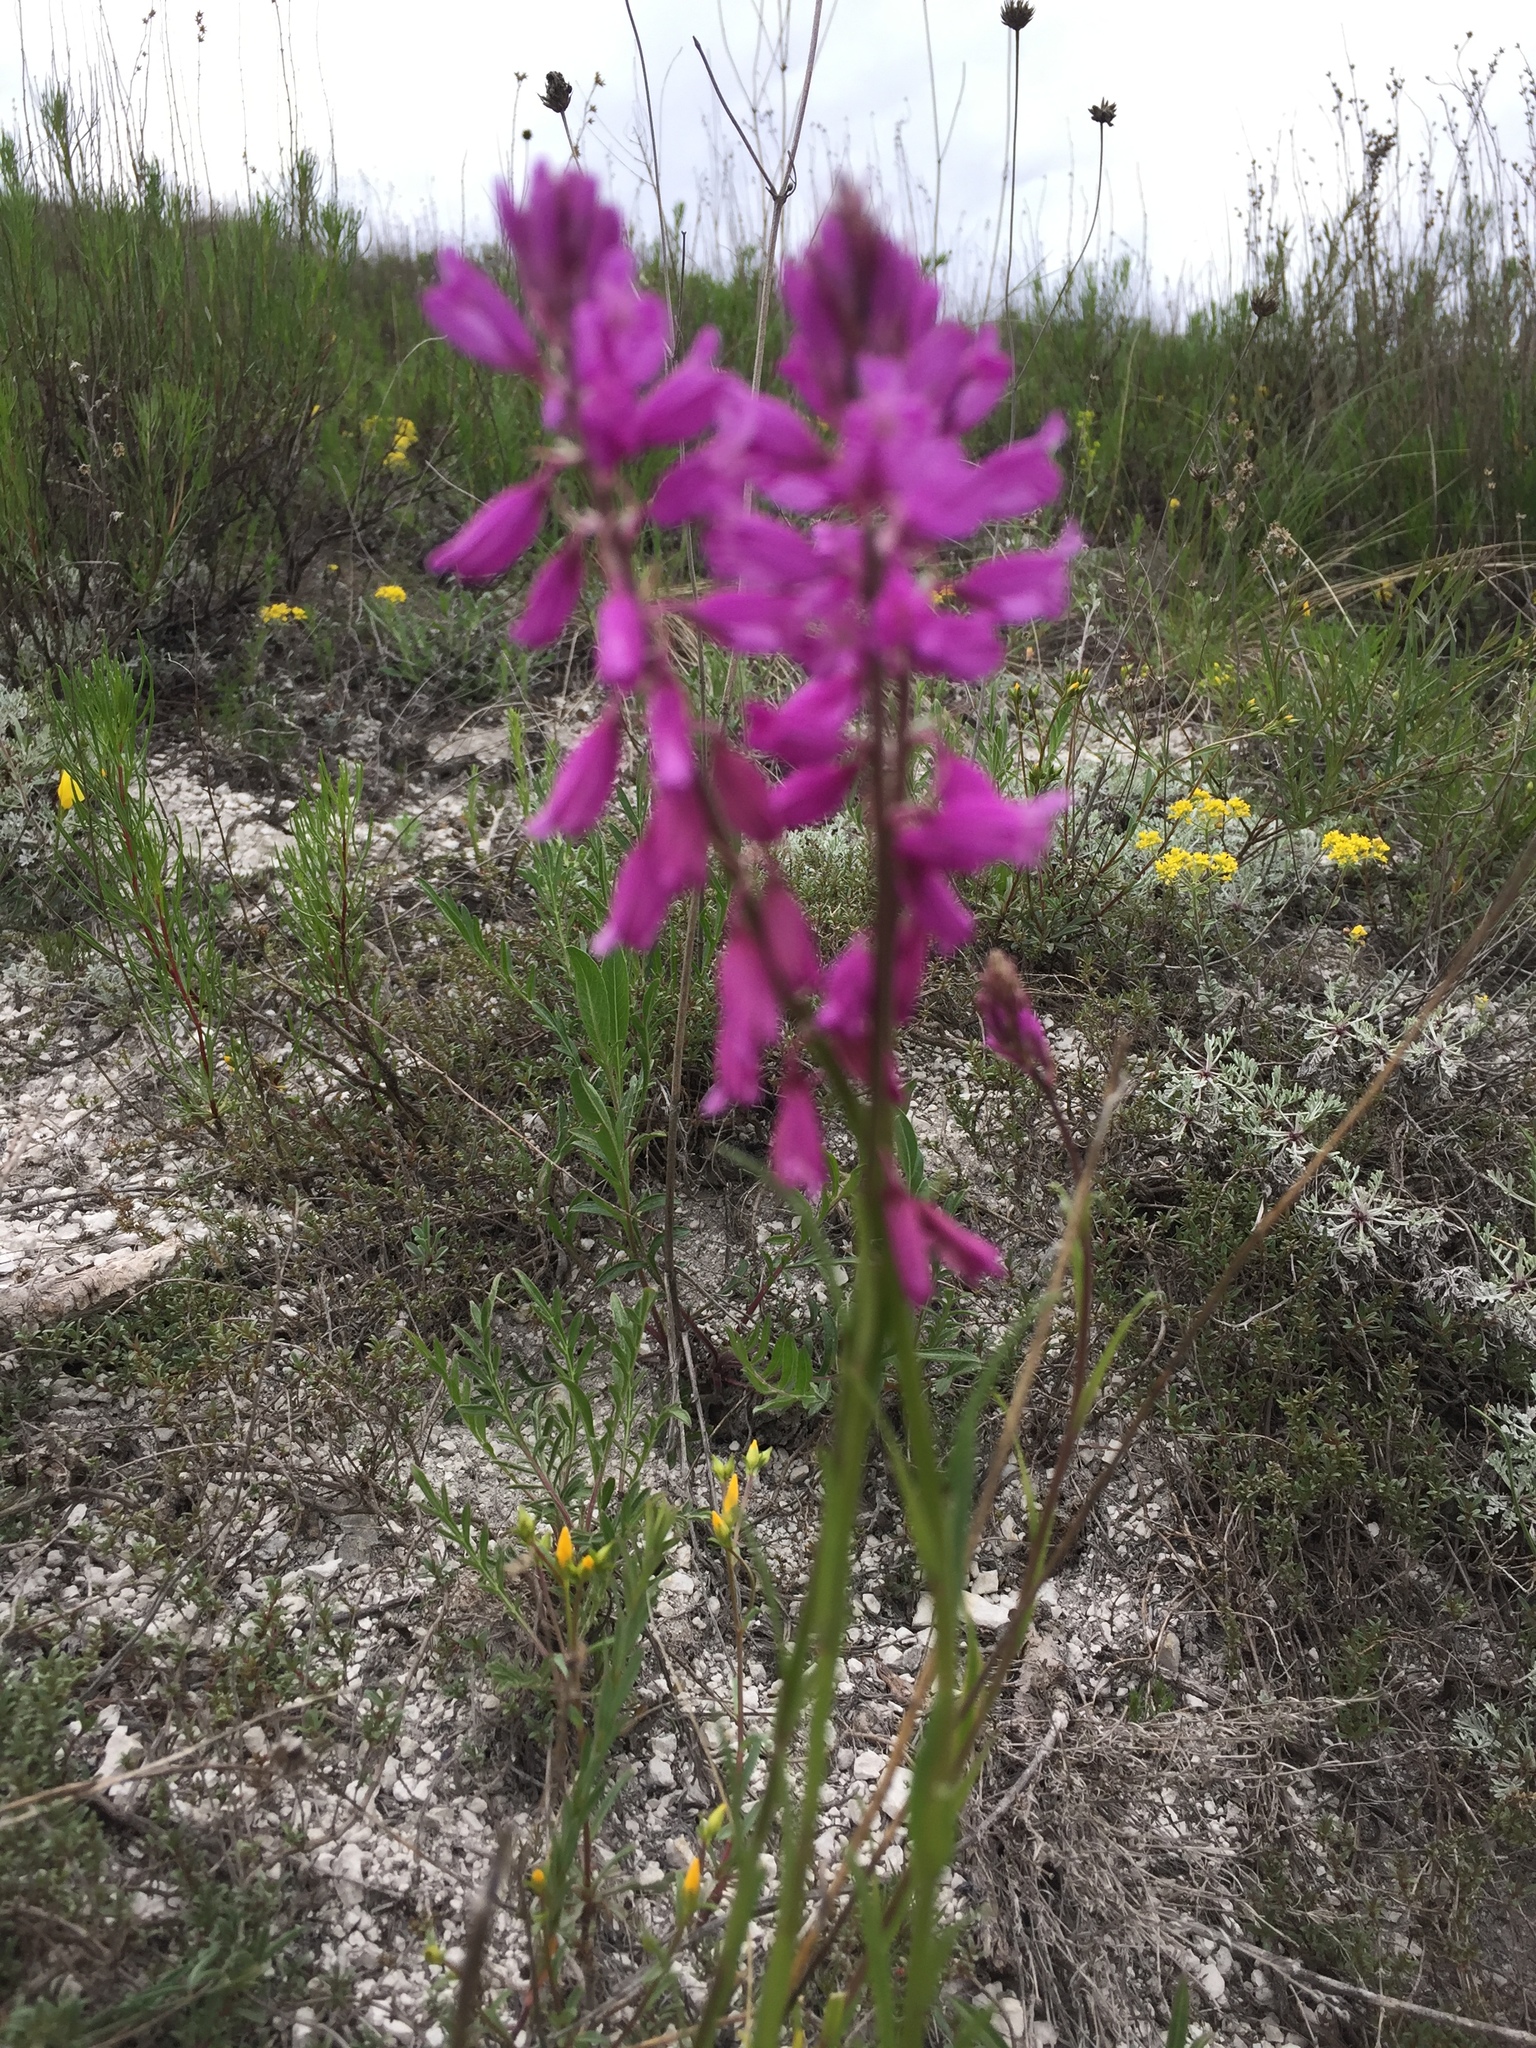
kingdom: Plantae
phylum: Tracheophyta
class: Magnoliopsida
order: Fabales
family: Polygalaceae
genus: Polygala
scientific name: Polygala nicaeensis
